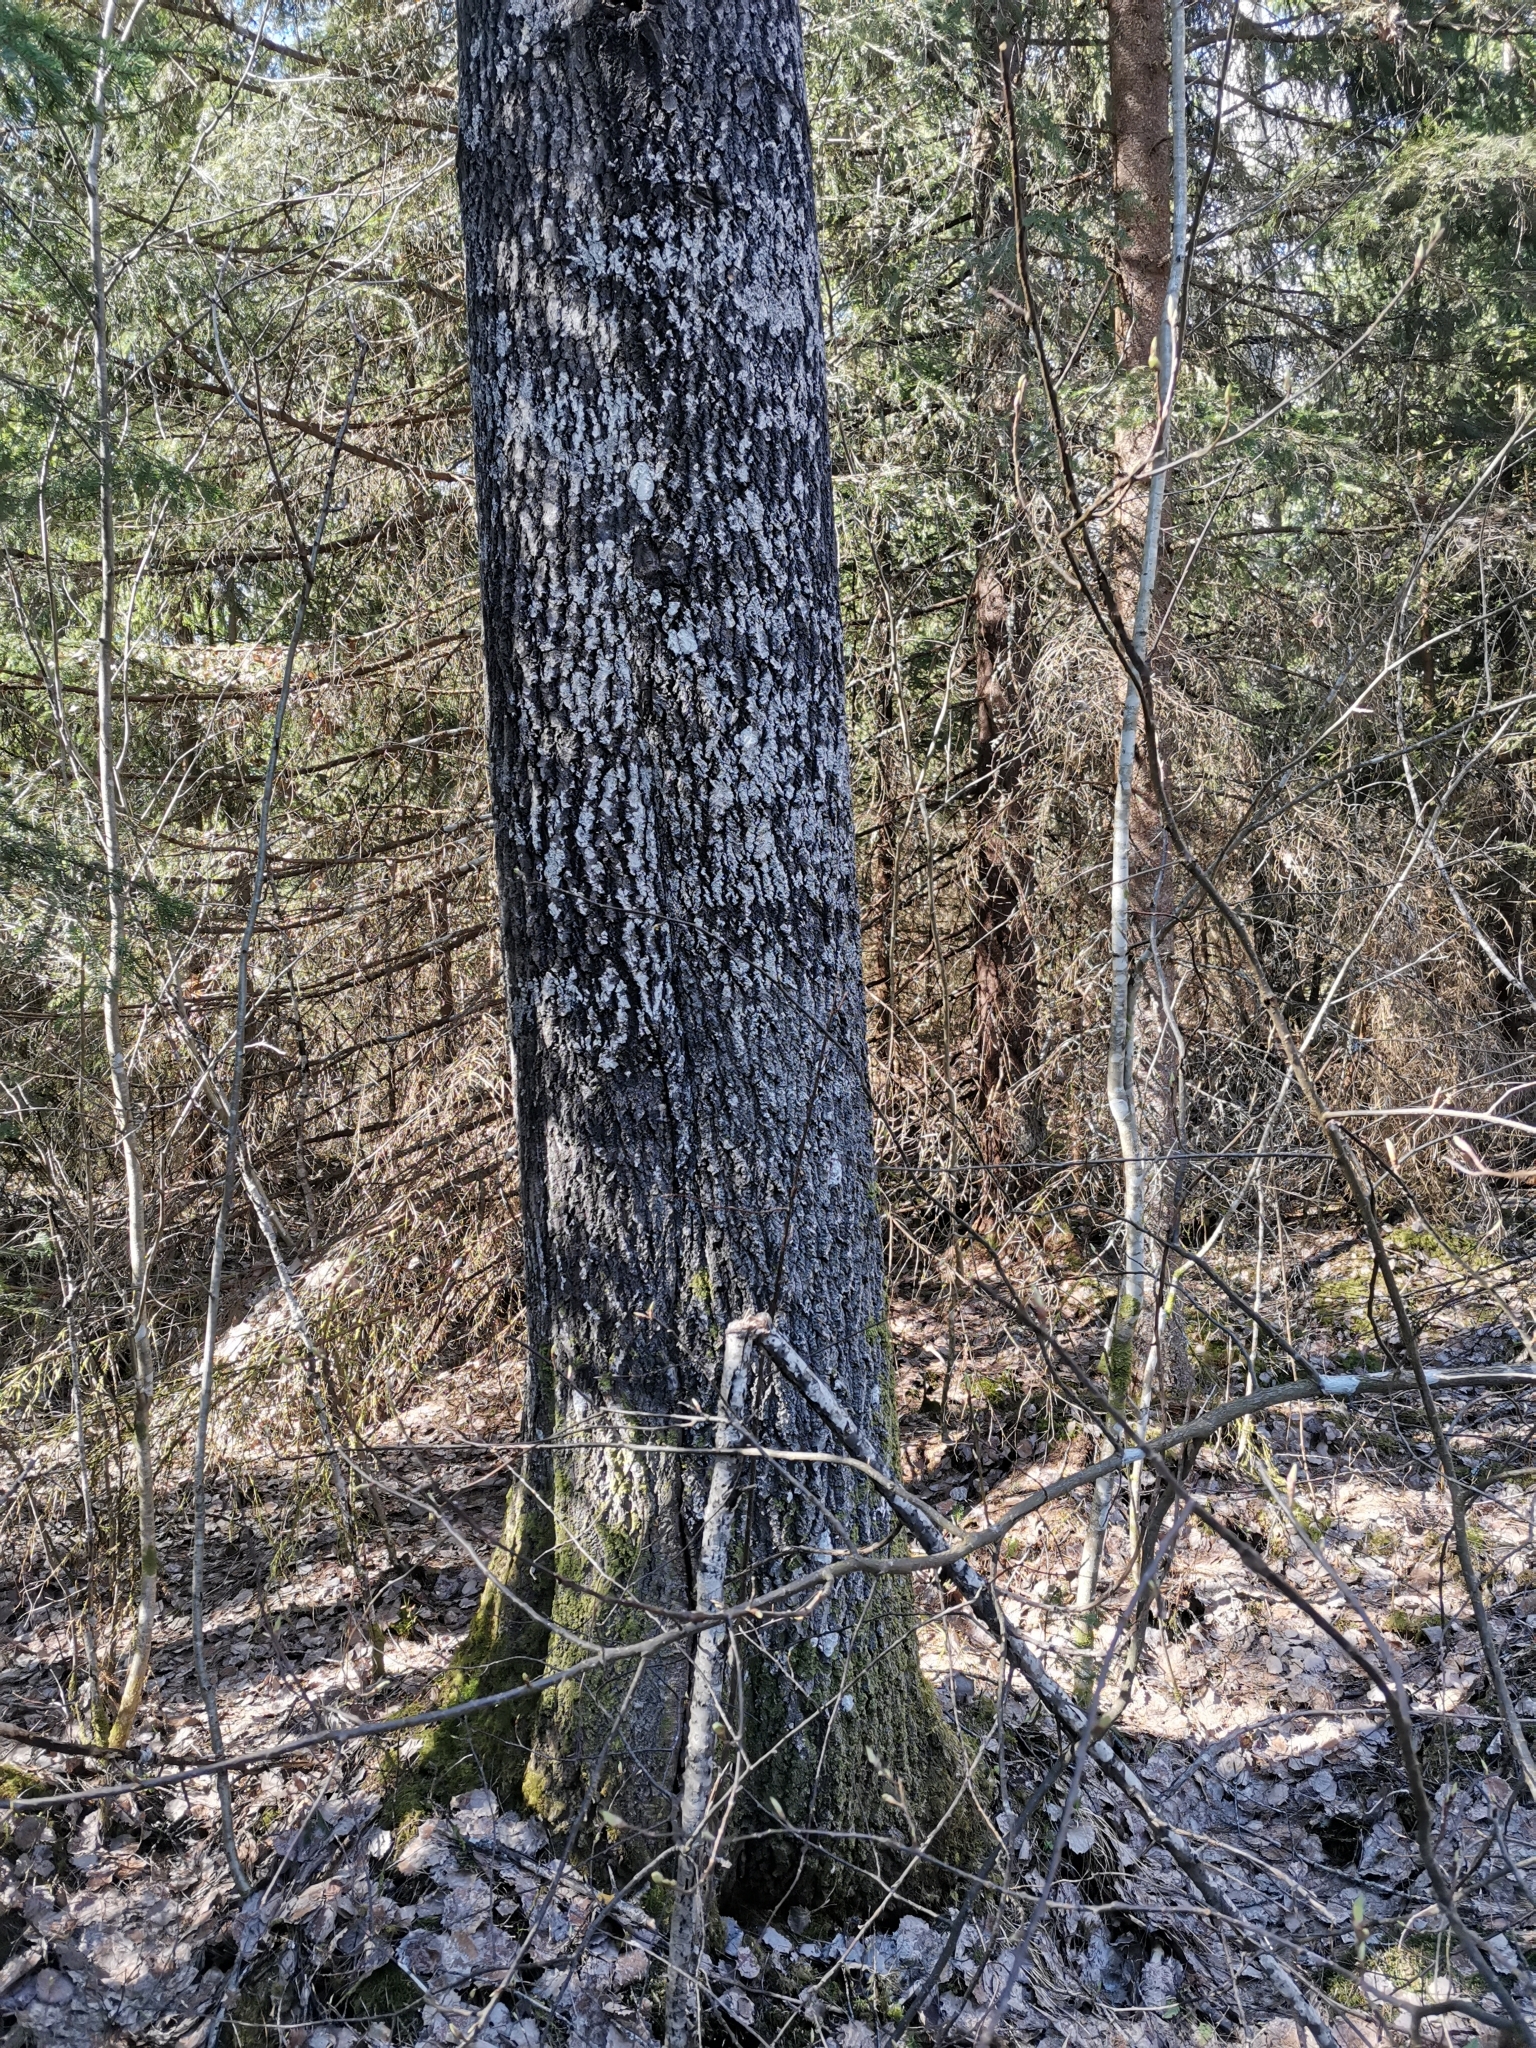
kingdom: Animalia
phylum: Chordata
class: Mammalia
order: Rodentia
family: Sciuridae
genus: Pteromys
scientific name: Pteromys volans
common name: Siberian flying squirrel
